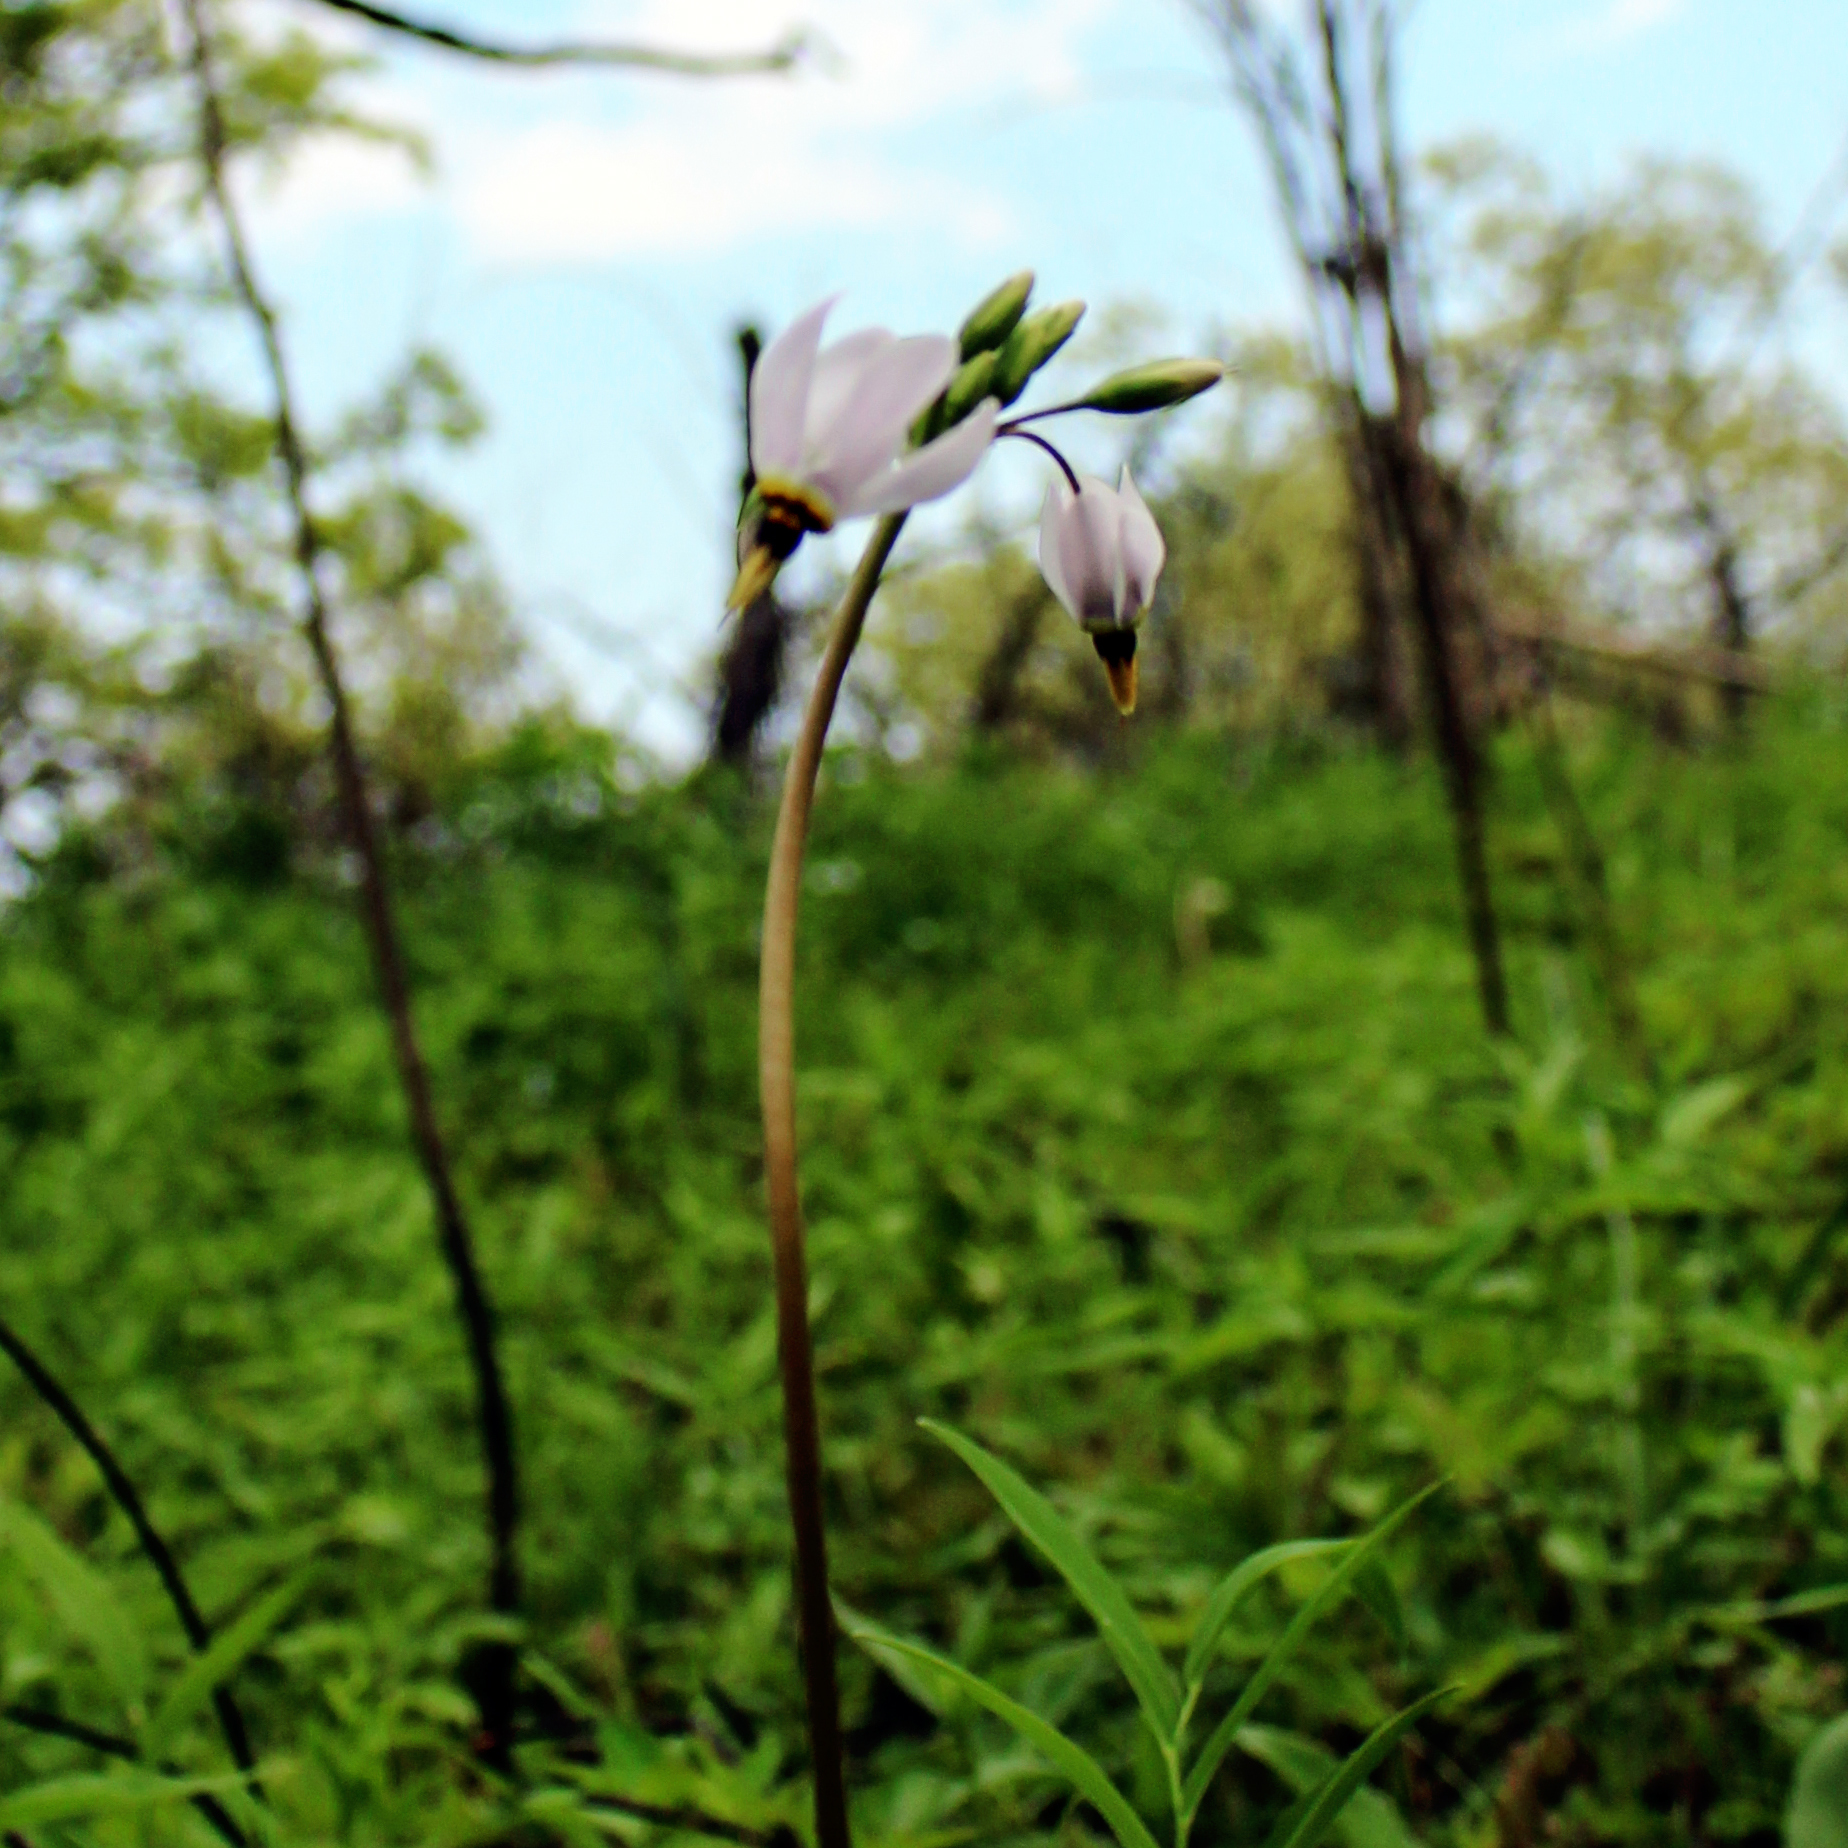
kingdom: Plantae
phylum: Tracheophyta
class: Magnoliopsida
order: Ericales
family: Primulaceae
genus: Dodecatheon
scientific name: Dodecatheon meadia
